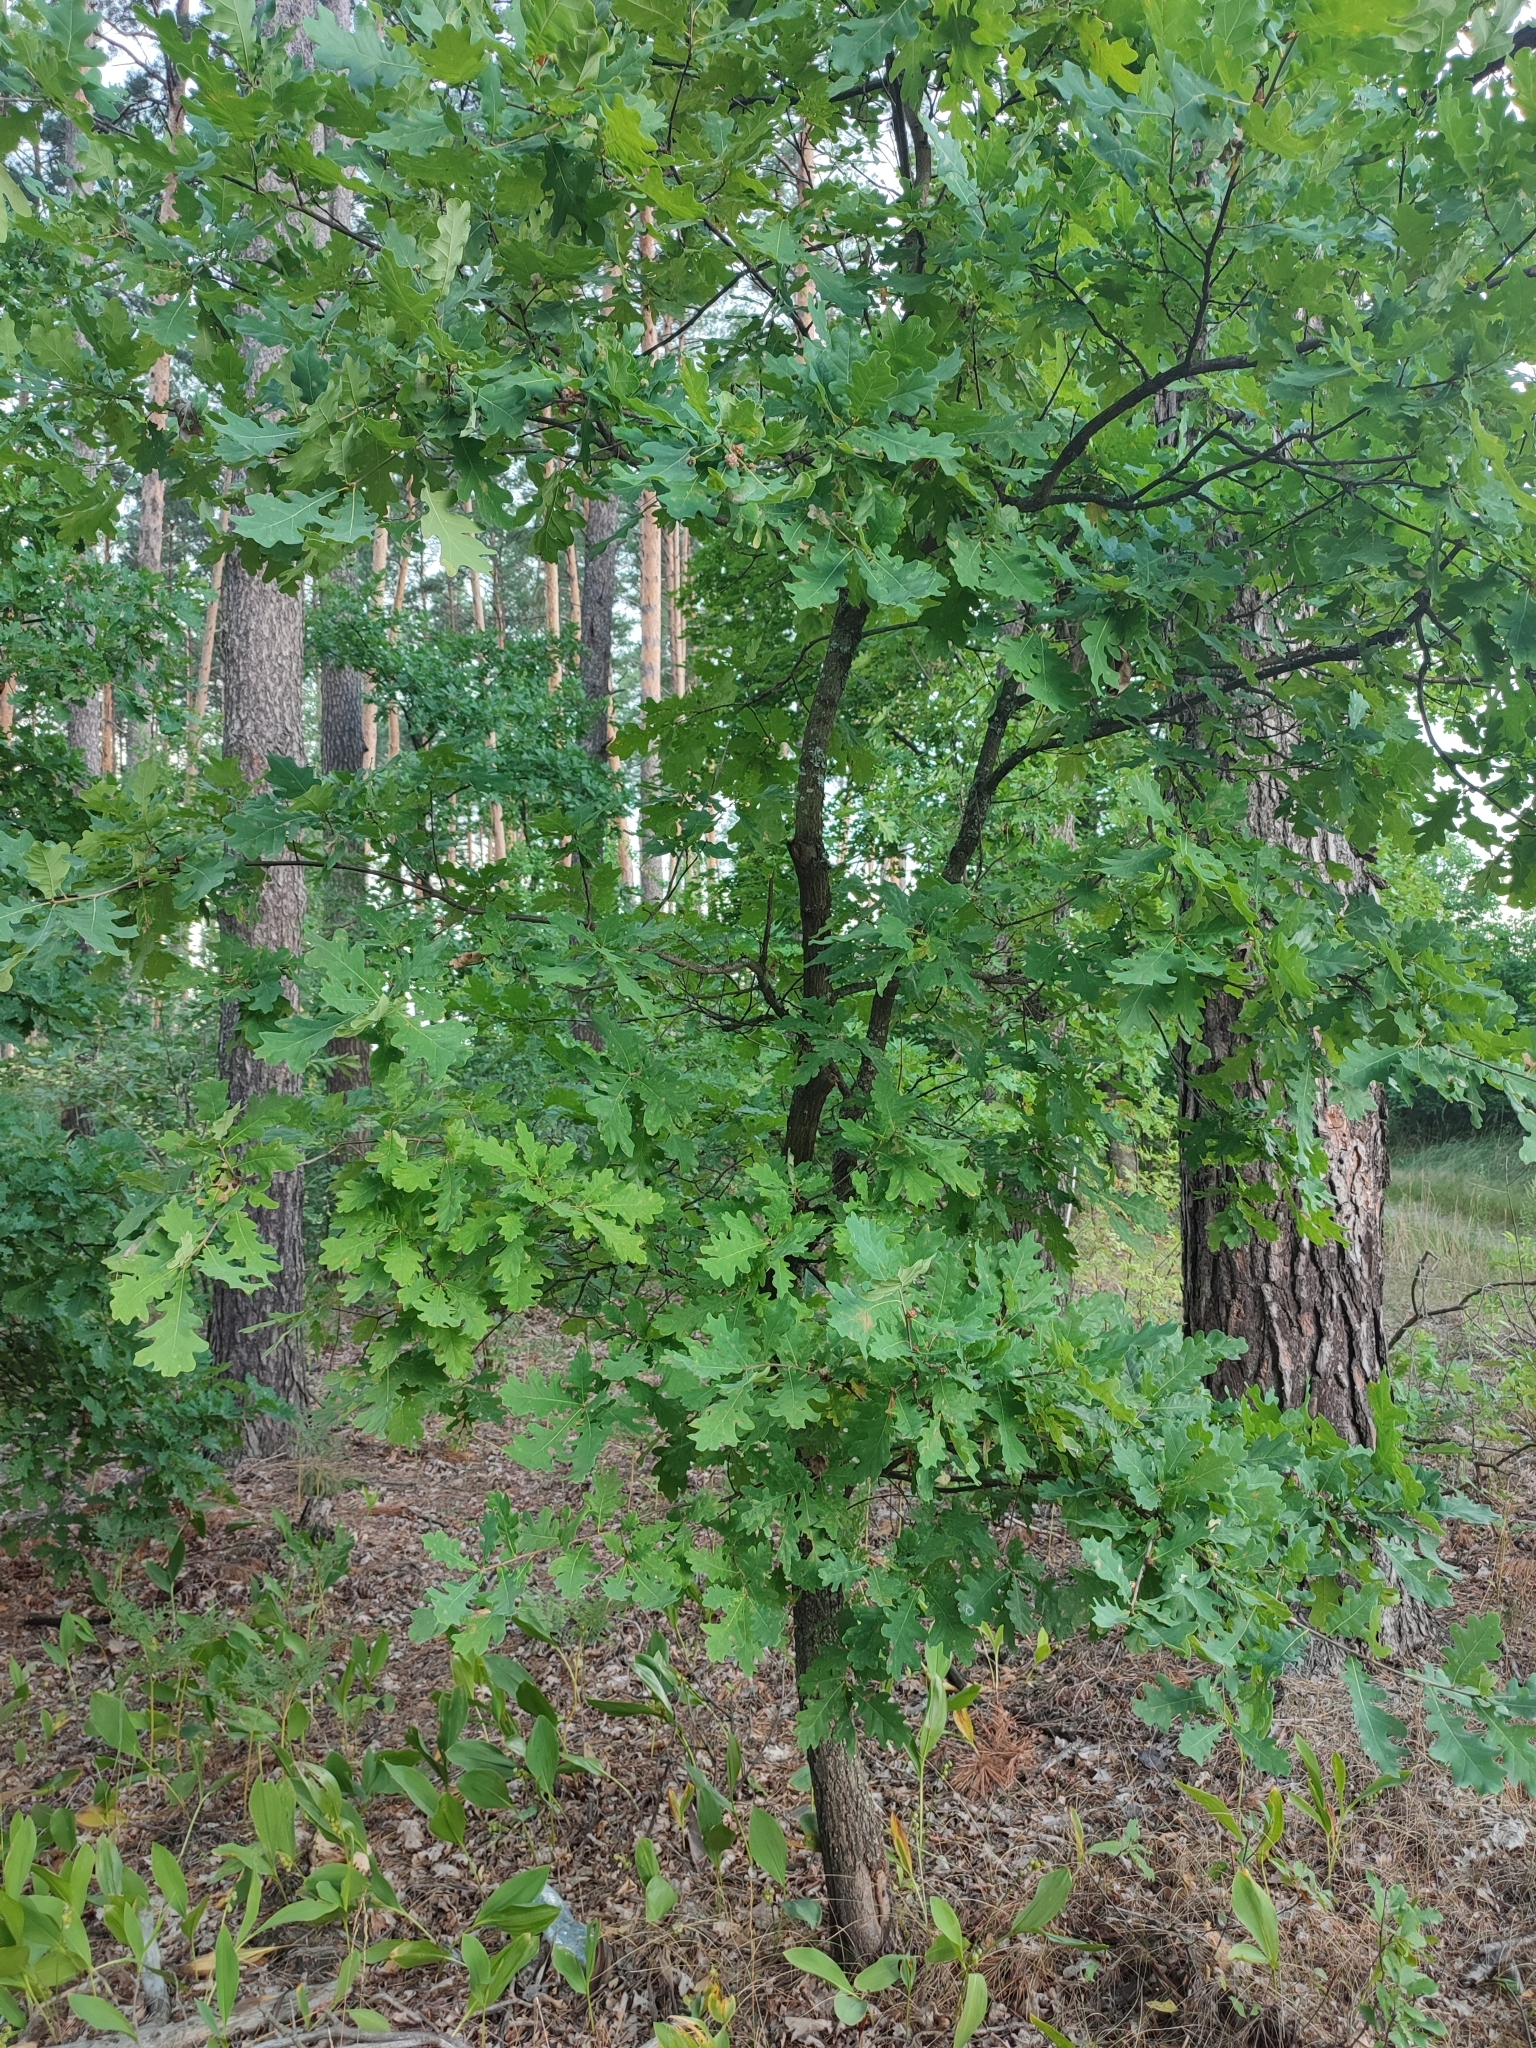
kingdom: Plantae
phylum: Tracheophyta
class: Magnoliopsida
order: Fagales
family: Fagaceae
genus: Quercus
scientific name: Quercus robur
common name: Pedunculate oak
